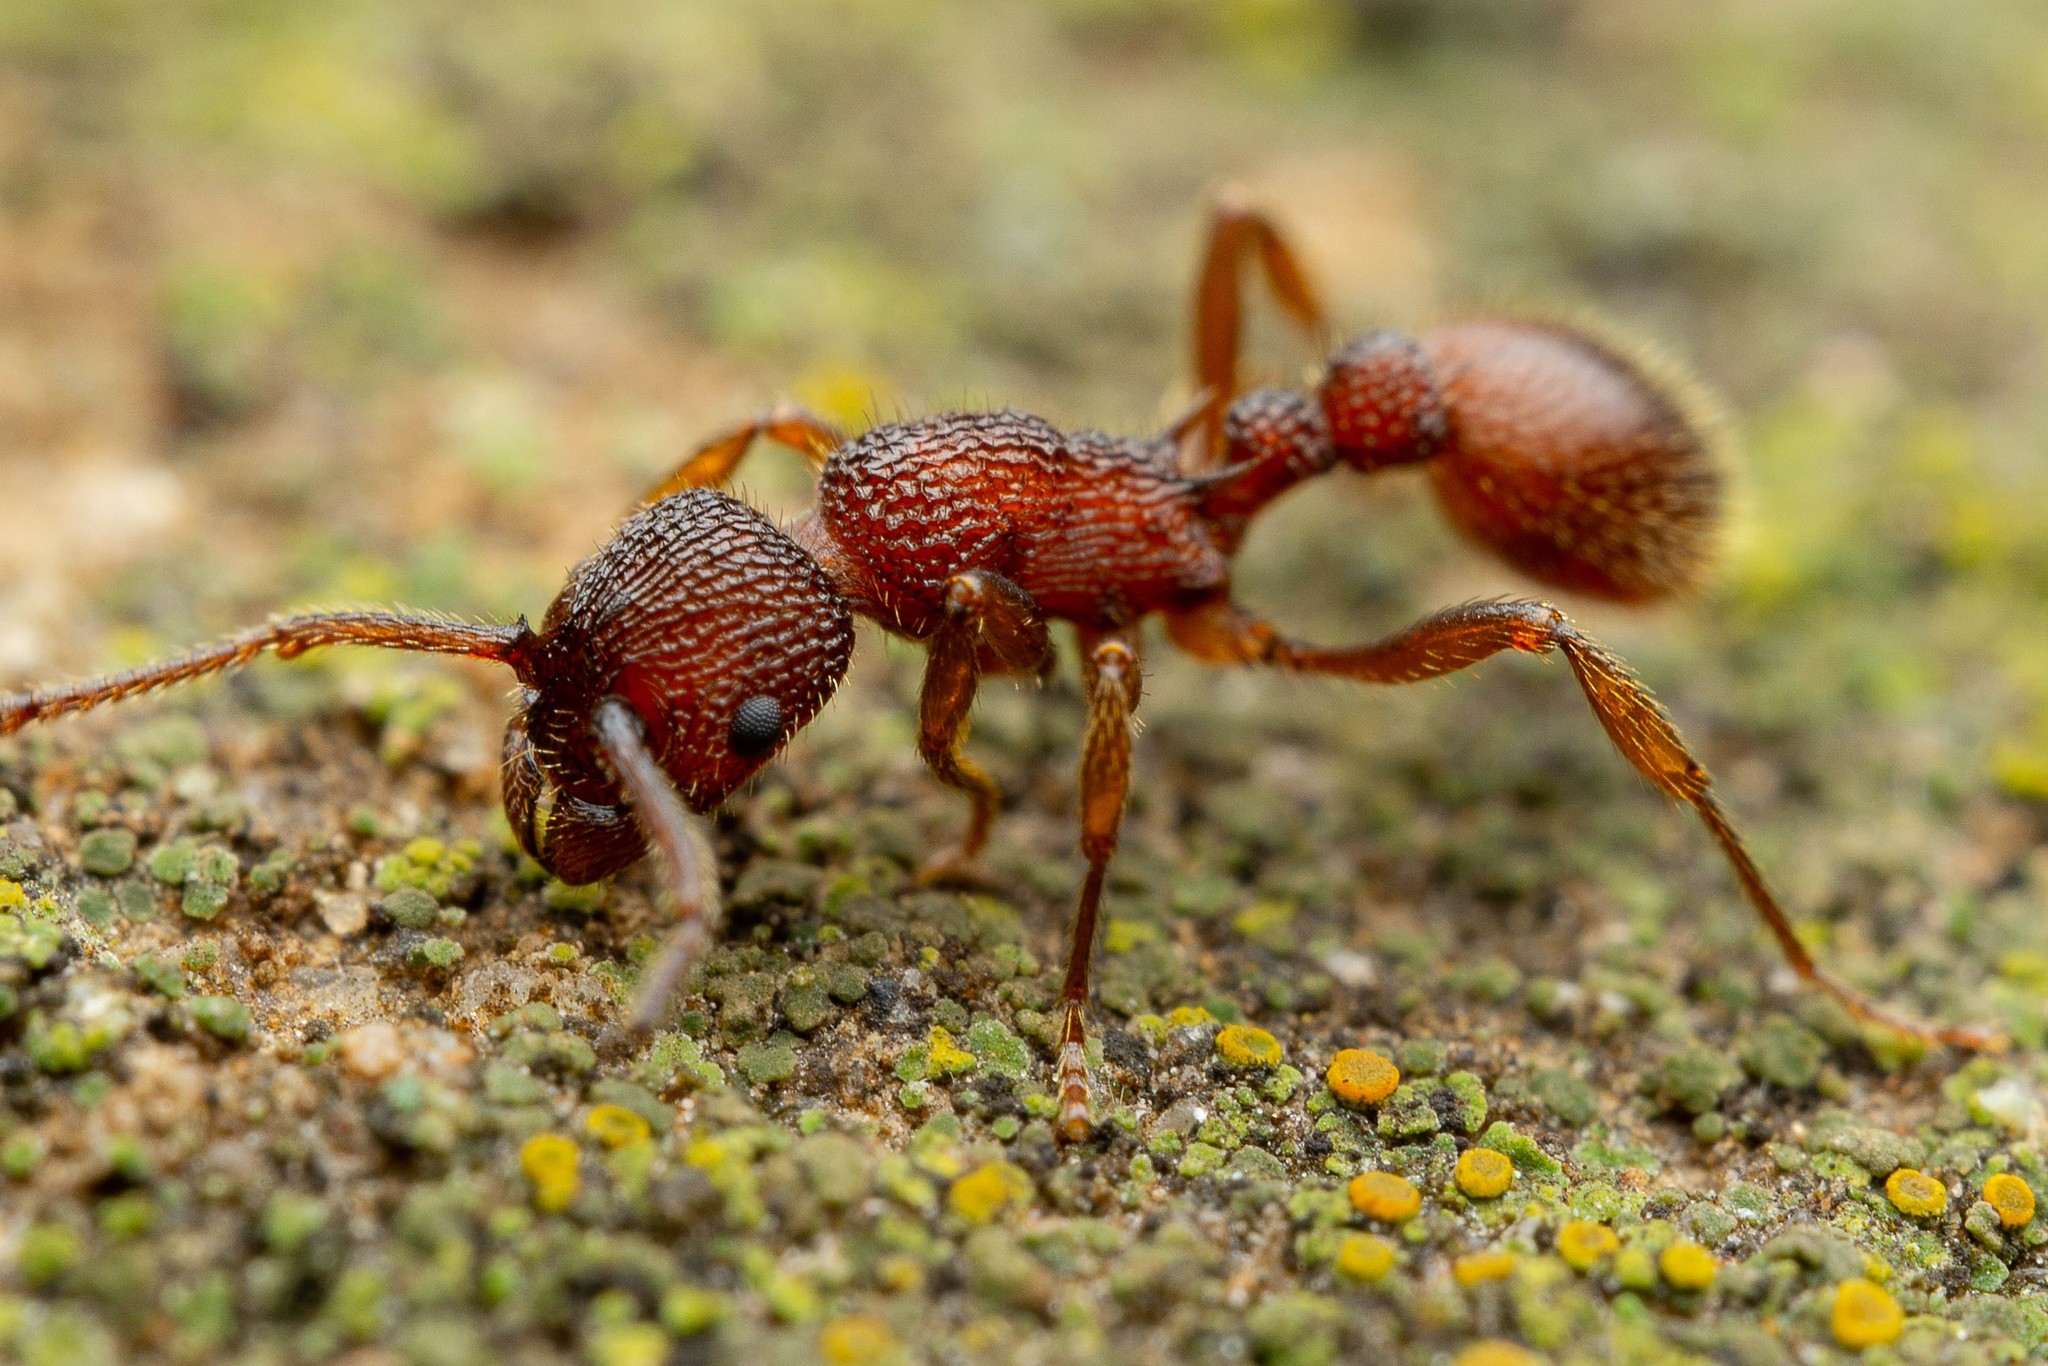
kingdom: Animalia
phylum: Arthropoda
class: Insecta
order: Hymenoptera
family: Formicidae
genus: Myrmica
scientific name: Myrmica striolagaster
